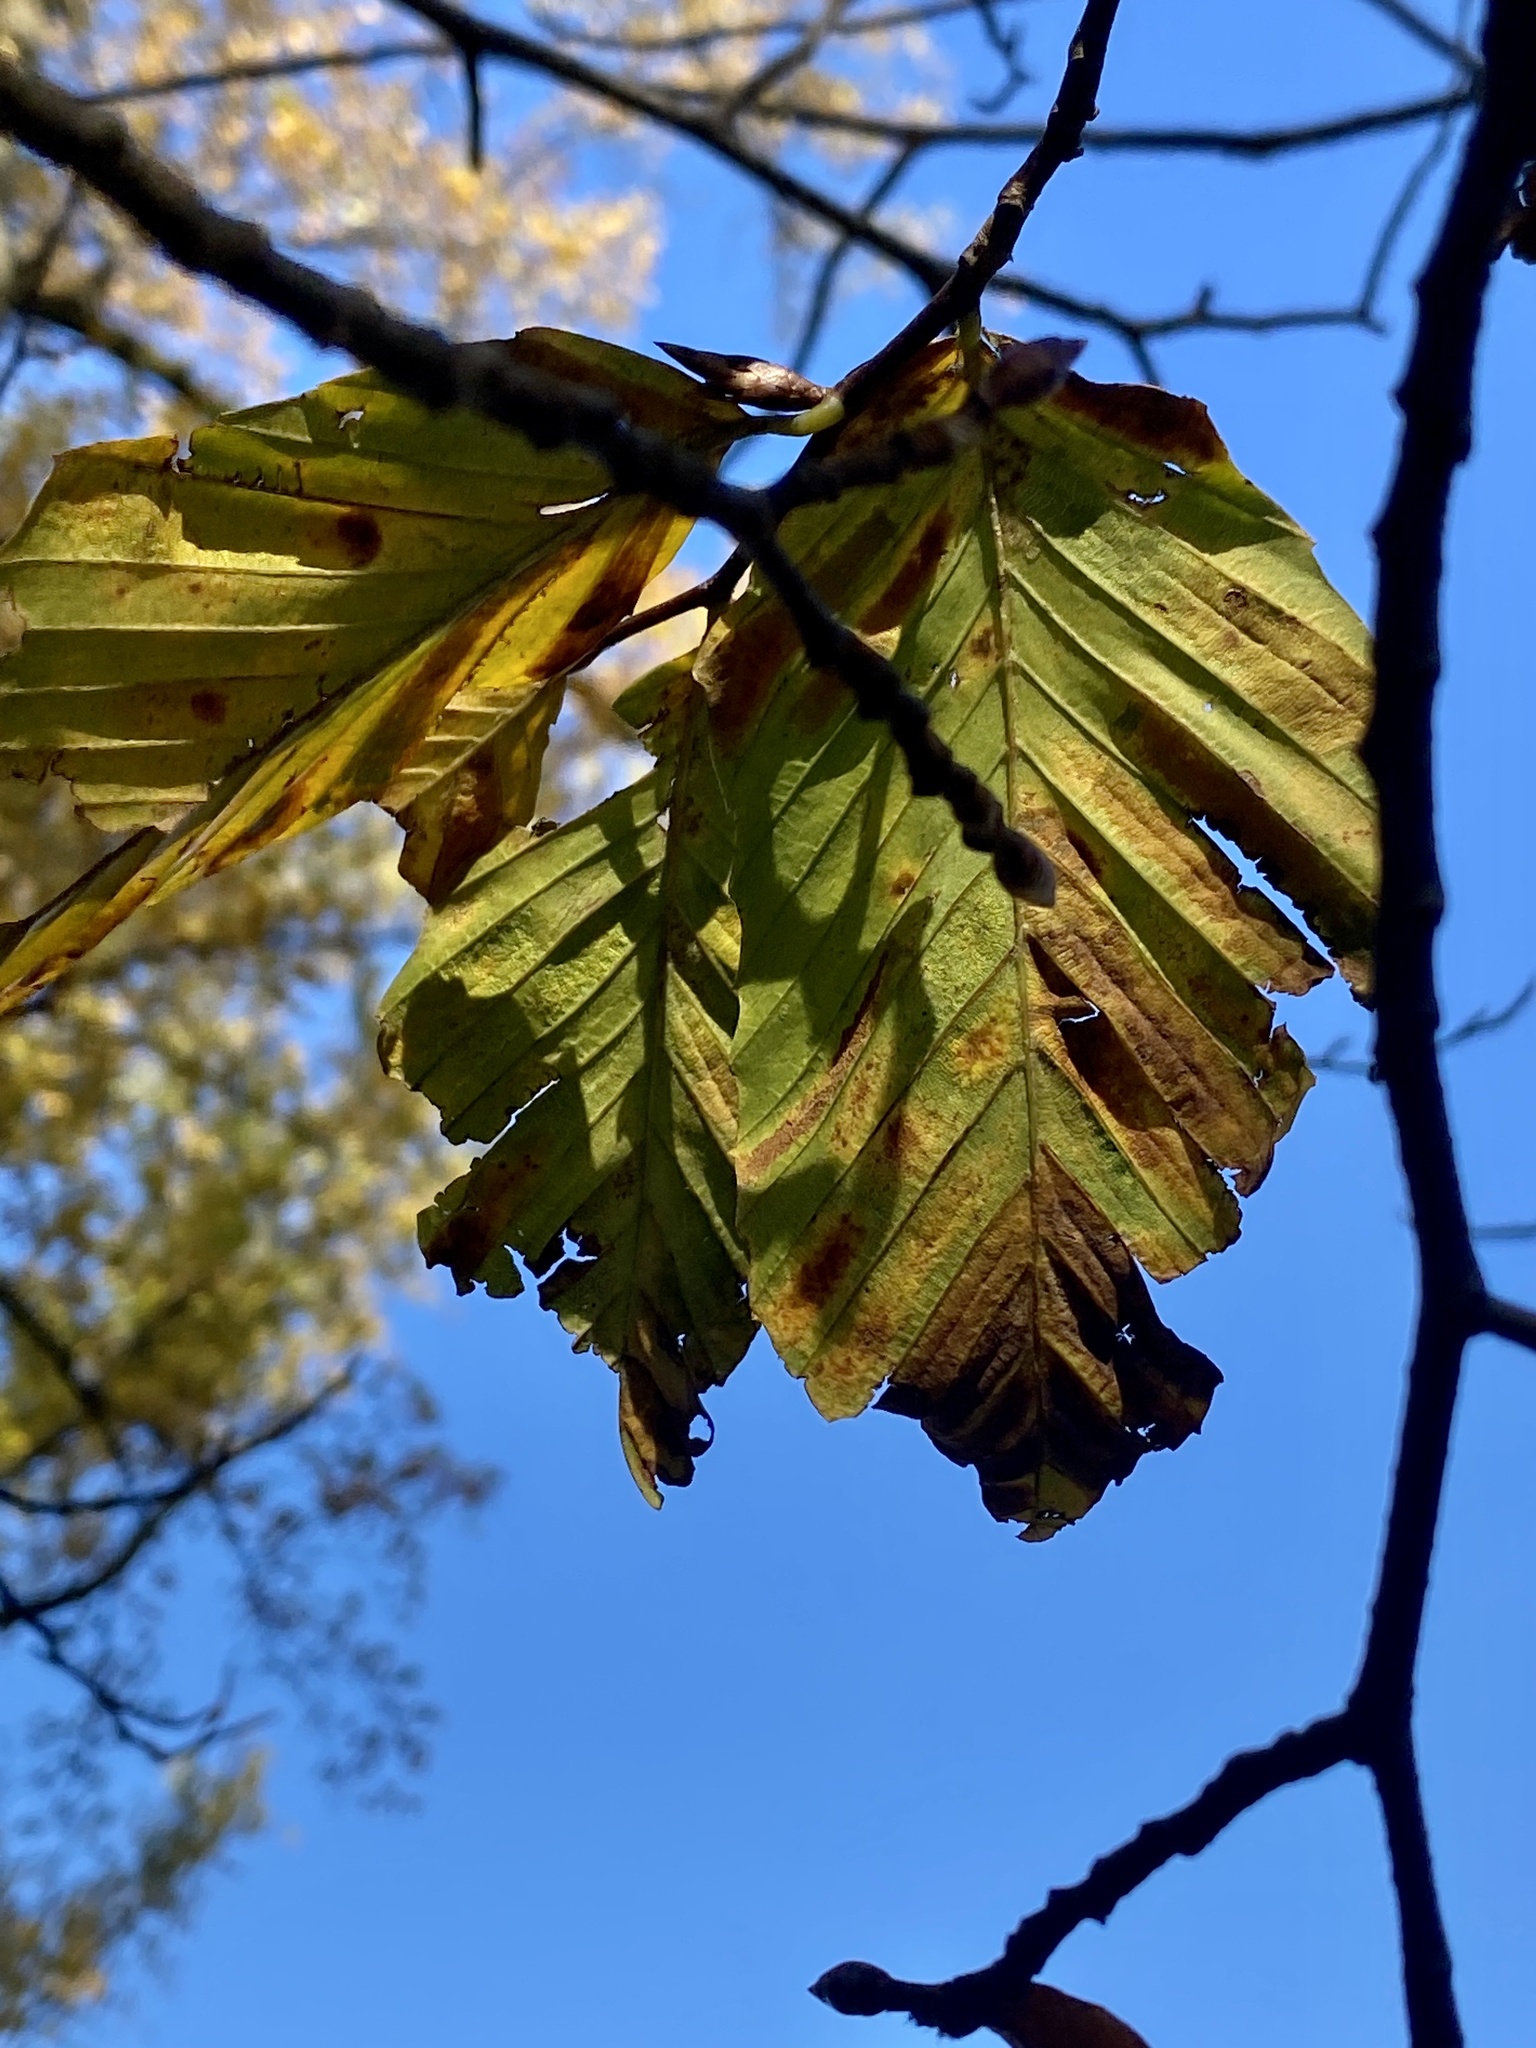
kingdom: Animalia
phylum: Nematoda
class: Chromadorea
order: Rhabditida
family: Anguinidae
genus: Litylenchus
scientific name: Litylenchus crenatae
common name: Beech leaf disease
